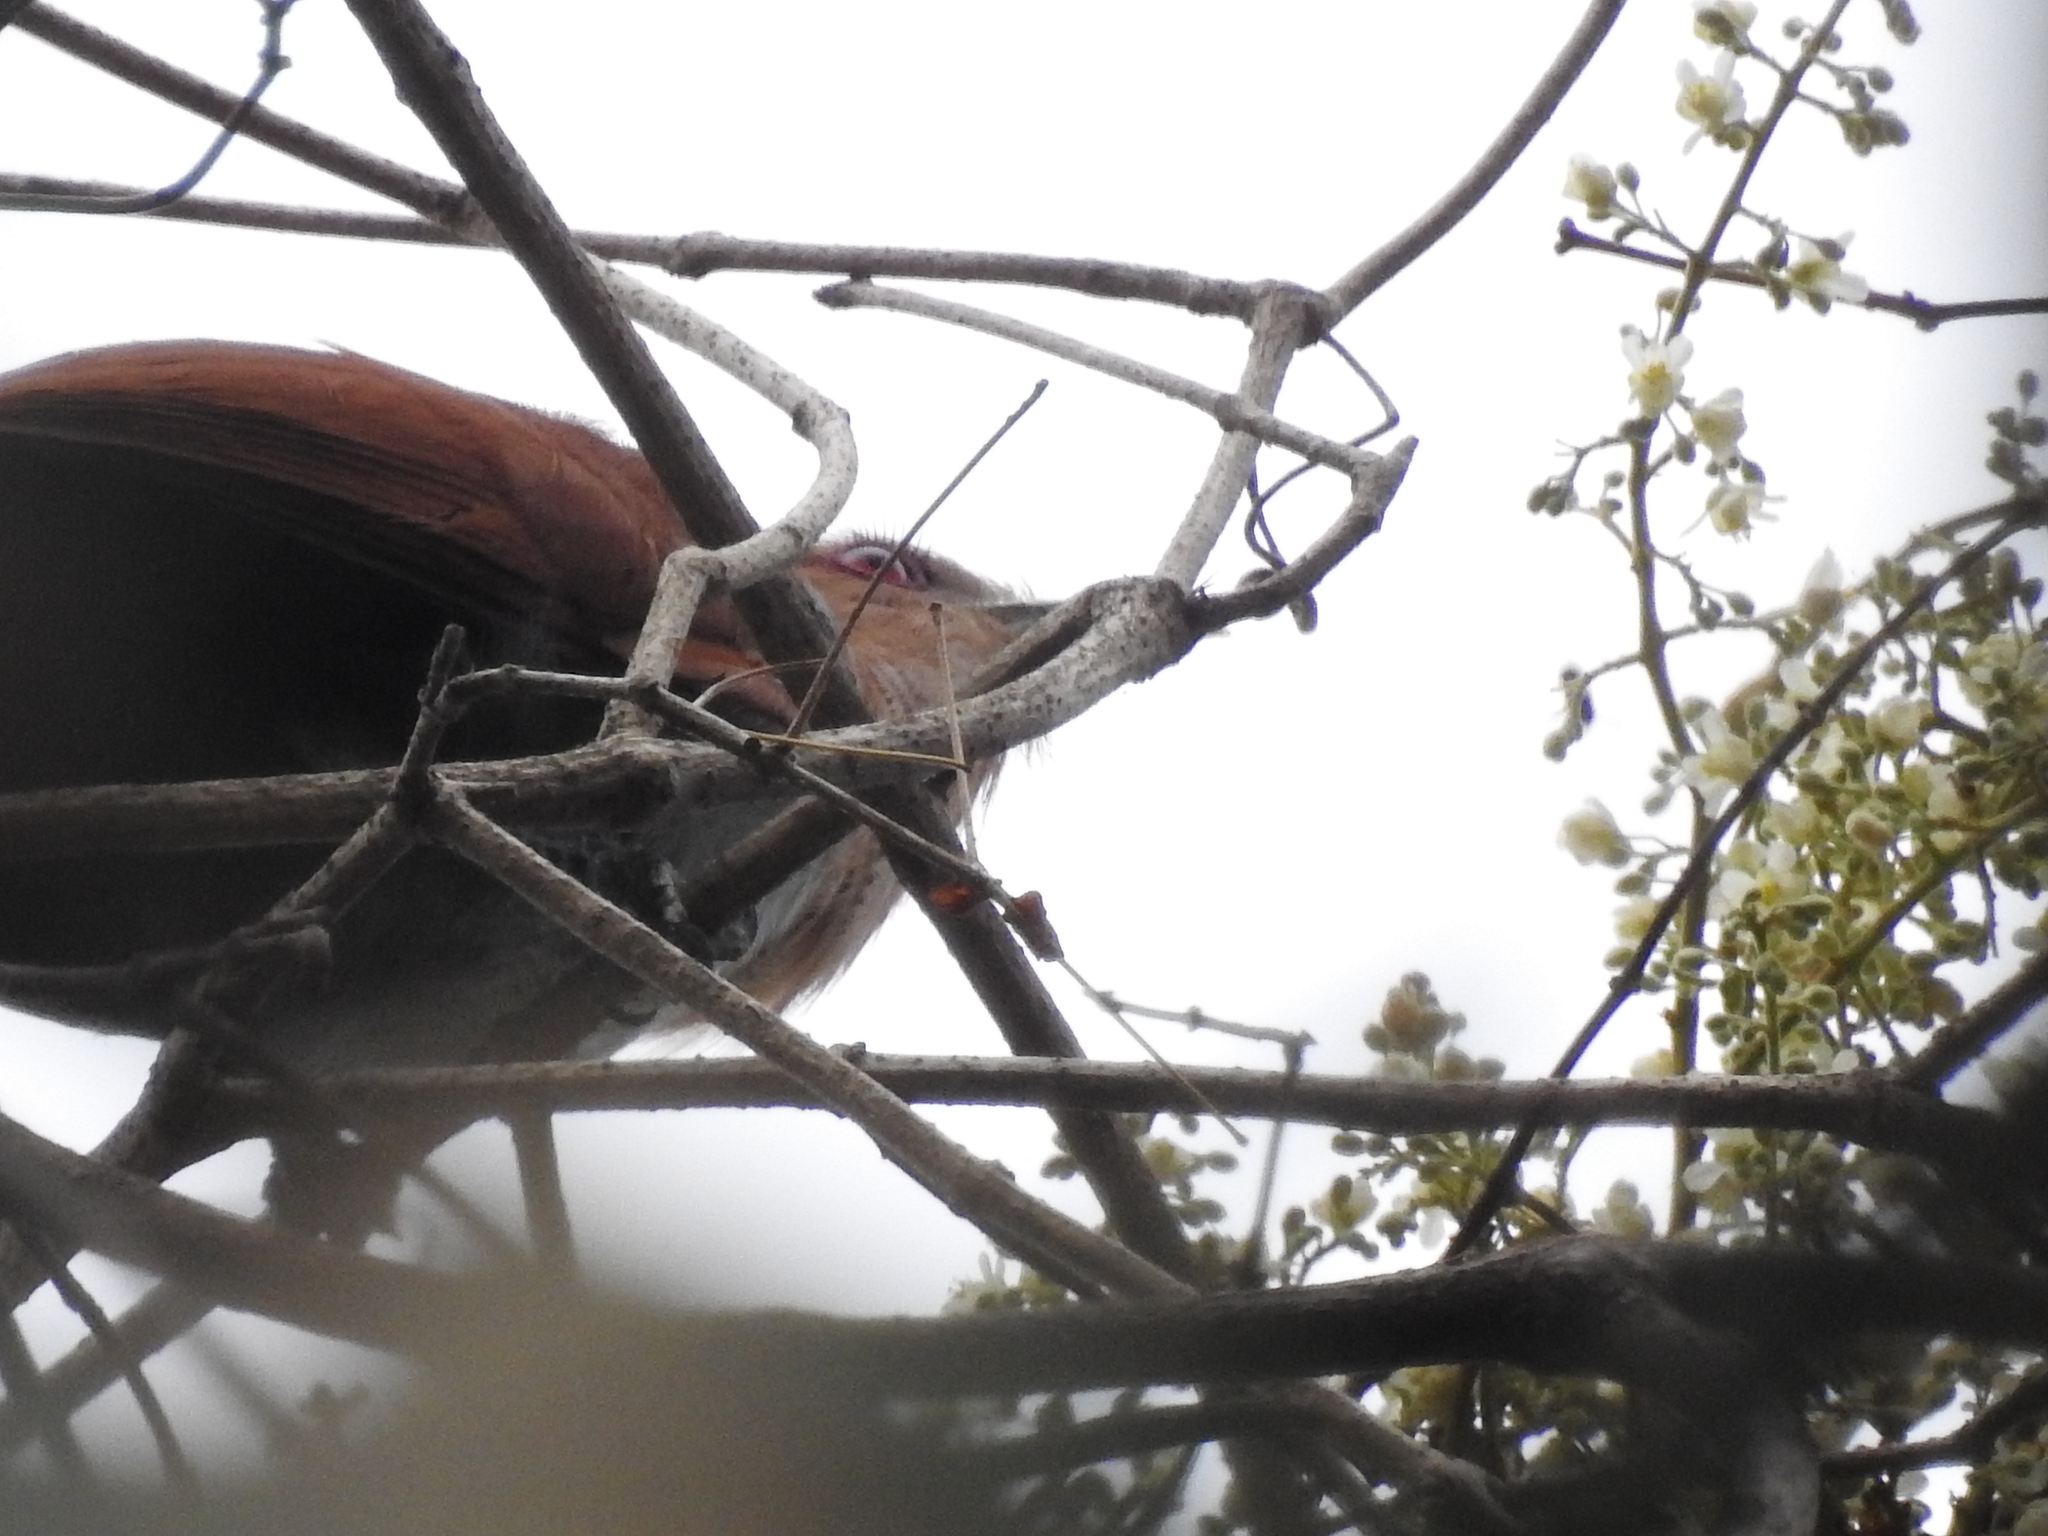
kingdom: Animalia
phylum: Chordata
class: Aves
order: Cuculiformes
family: Cuculidae
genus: Piaya
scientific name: Piaya cayana
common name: Squirrel cuckoo
